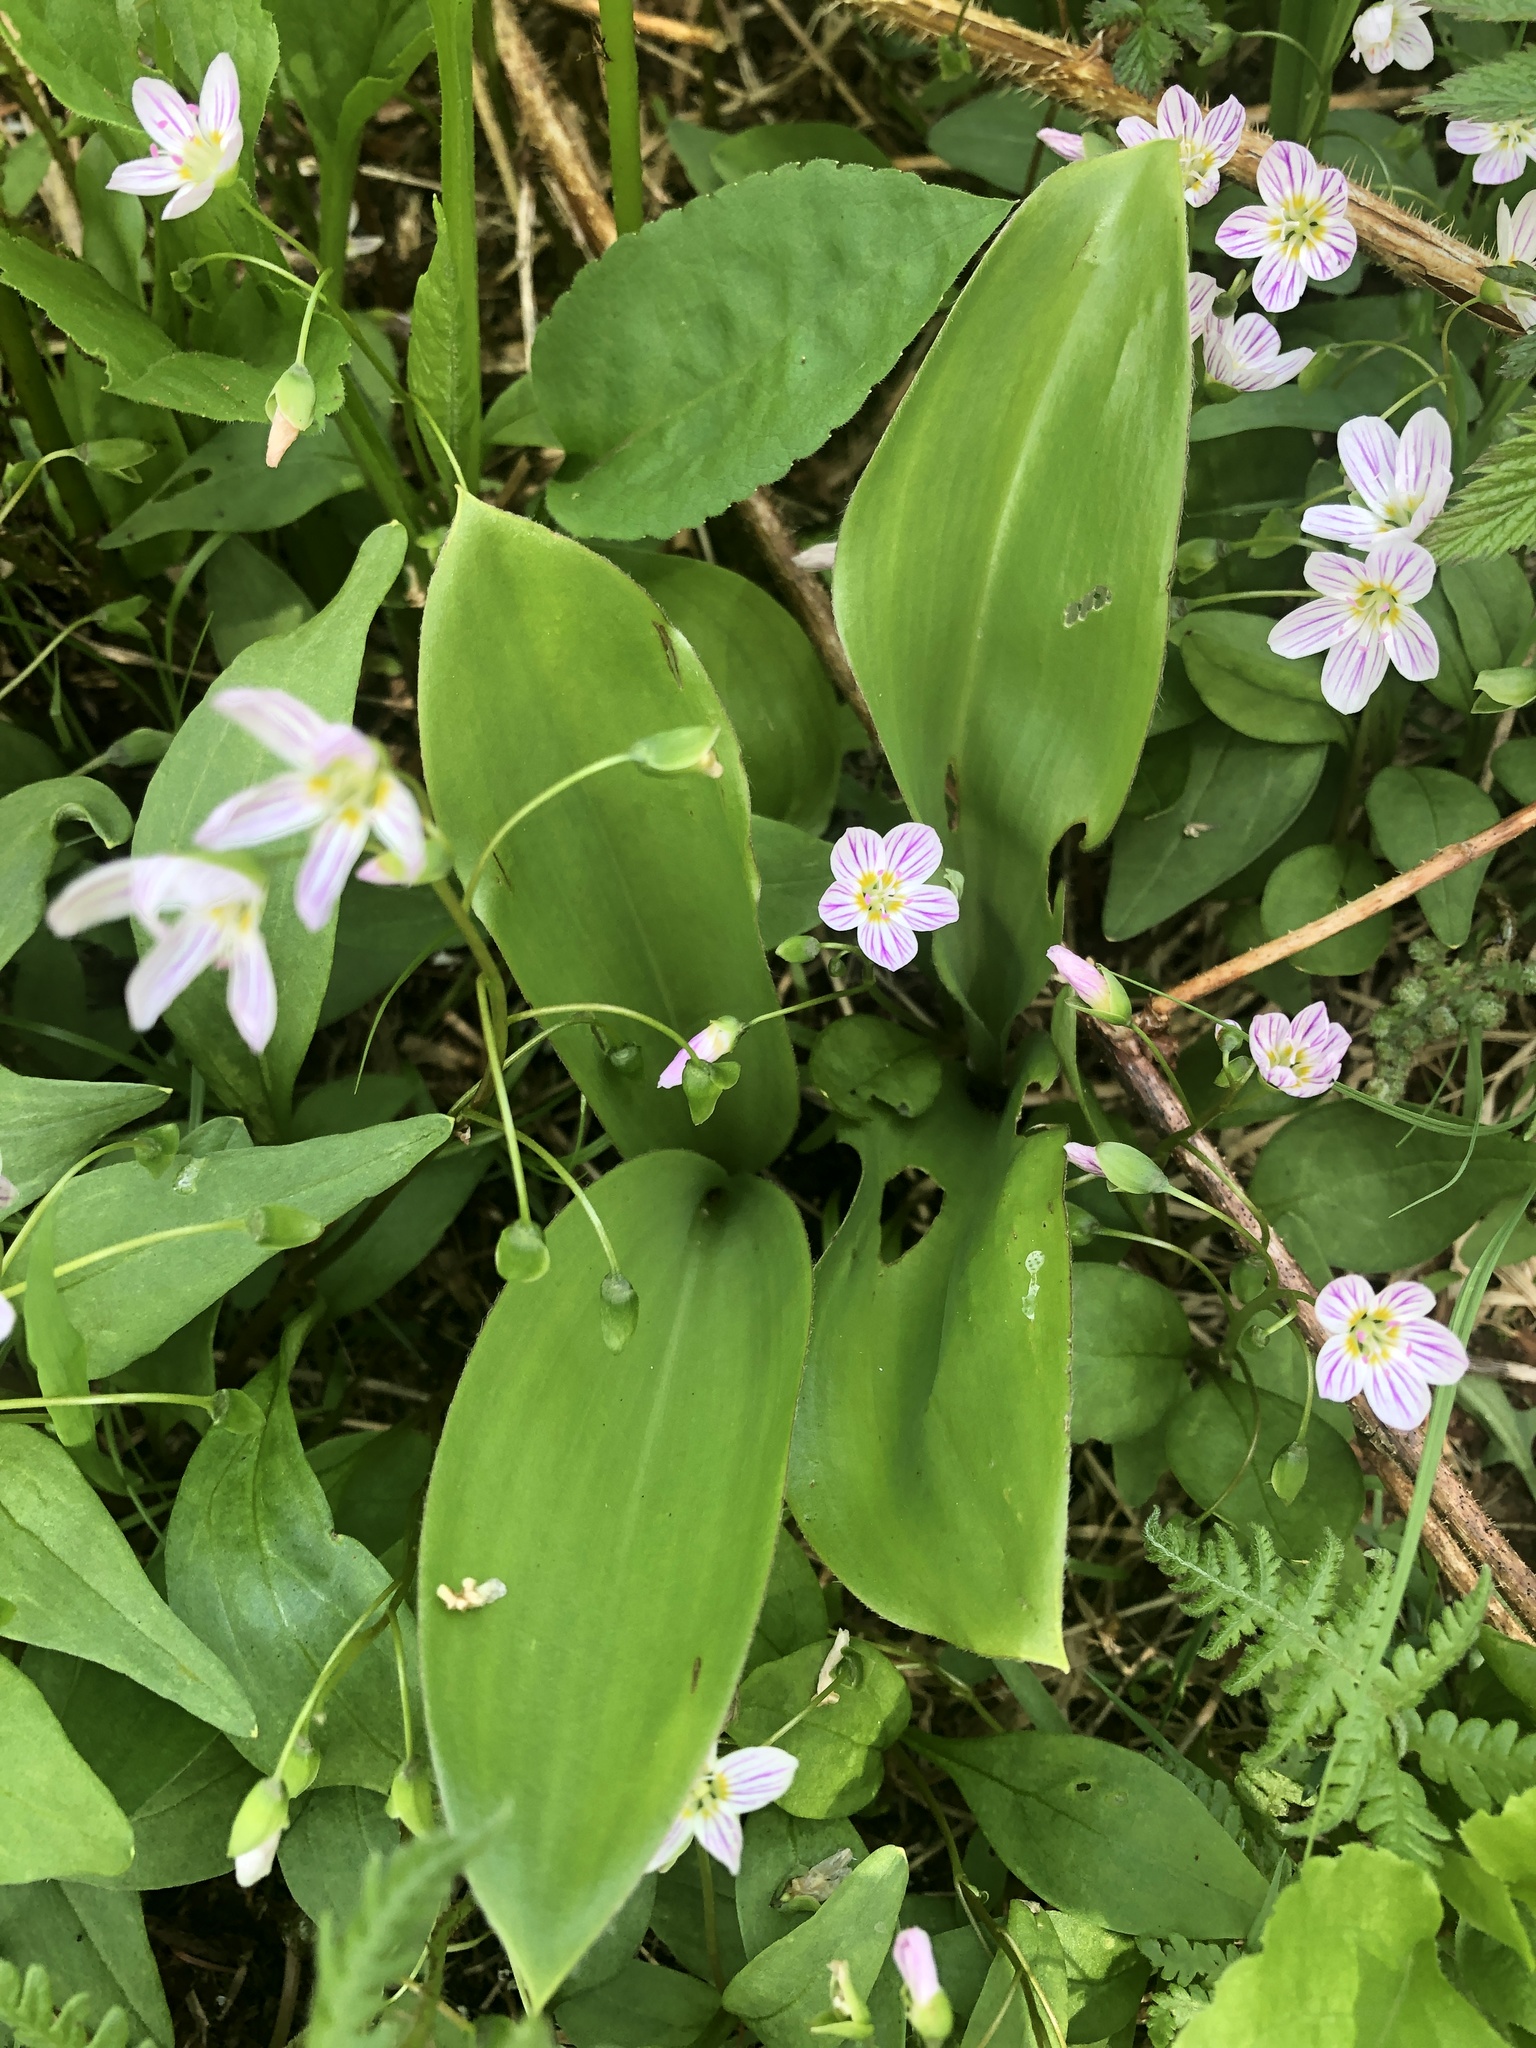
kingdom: Plantae
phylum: Tracheophyta
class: Magnoliopsida
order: Caryophyllales
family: Montiaceae
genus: Claytonia
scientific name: Claytonia caroliniana
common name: Carolina spring beauty
